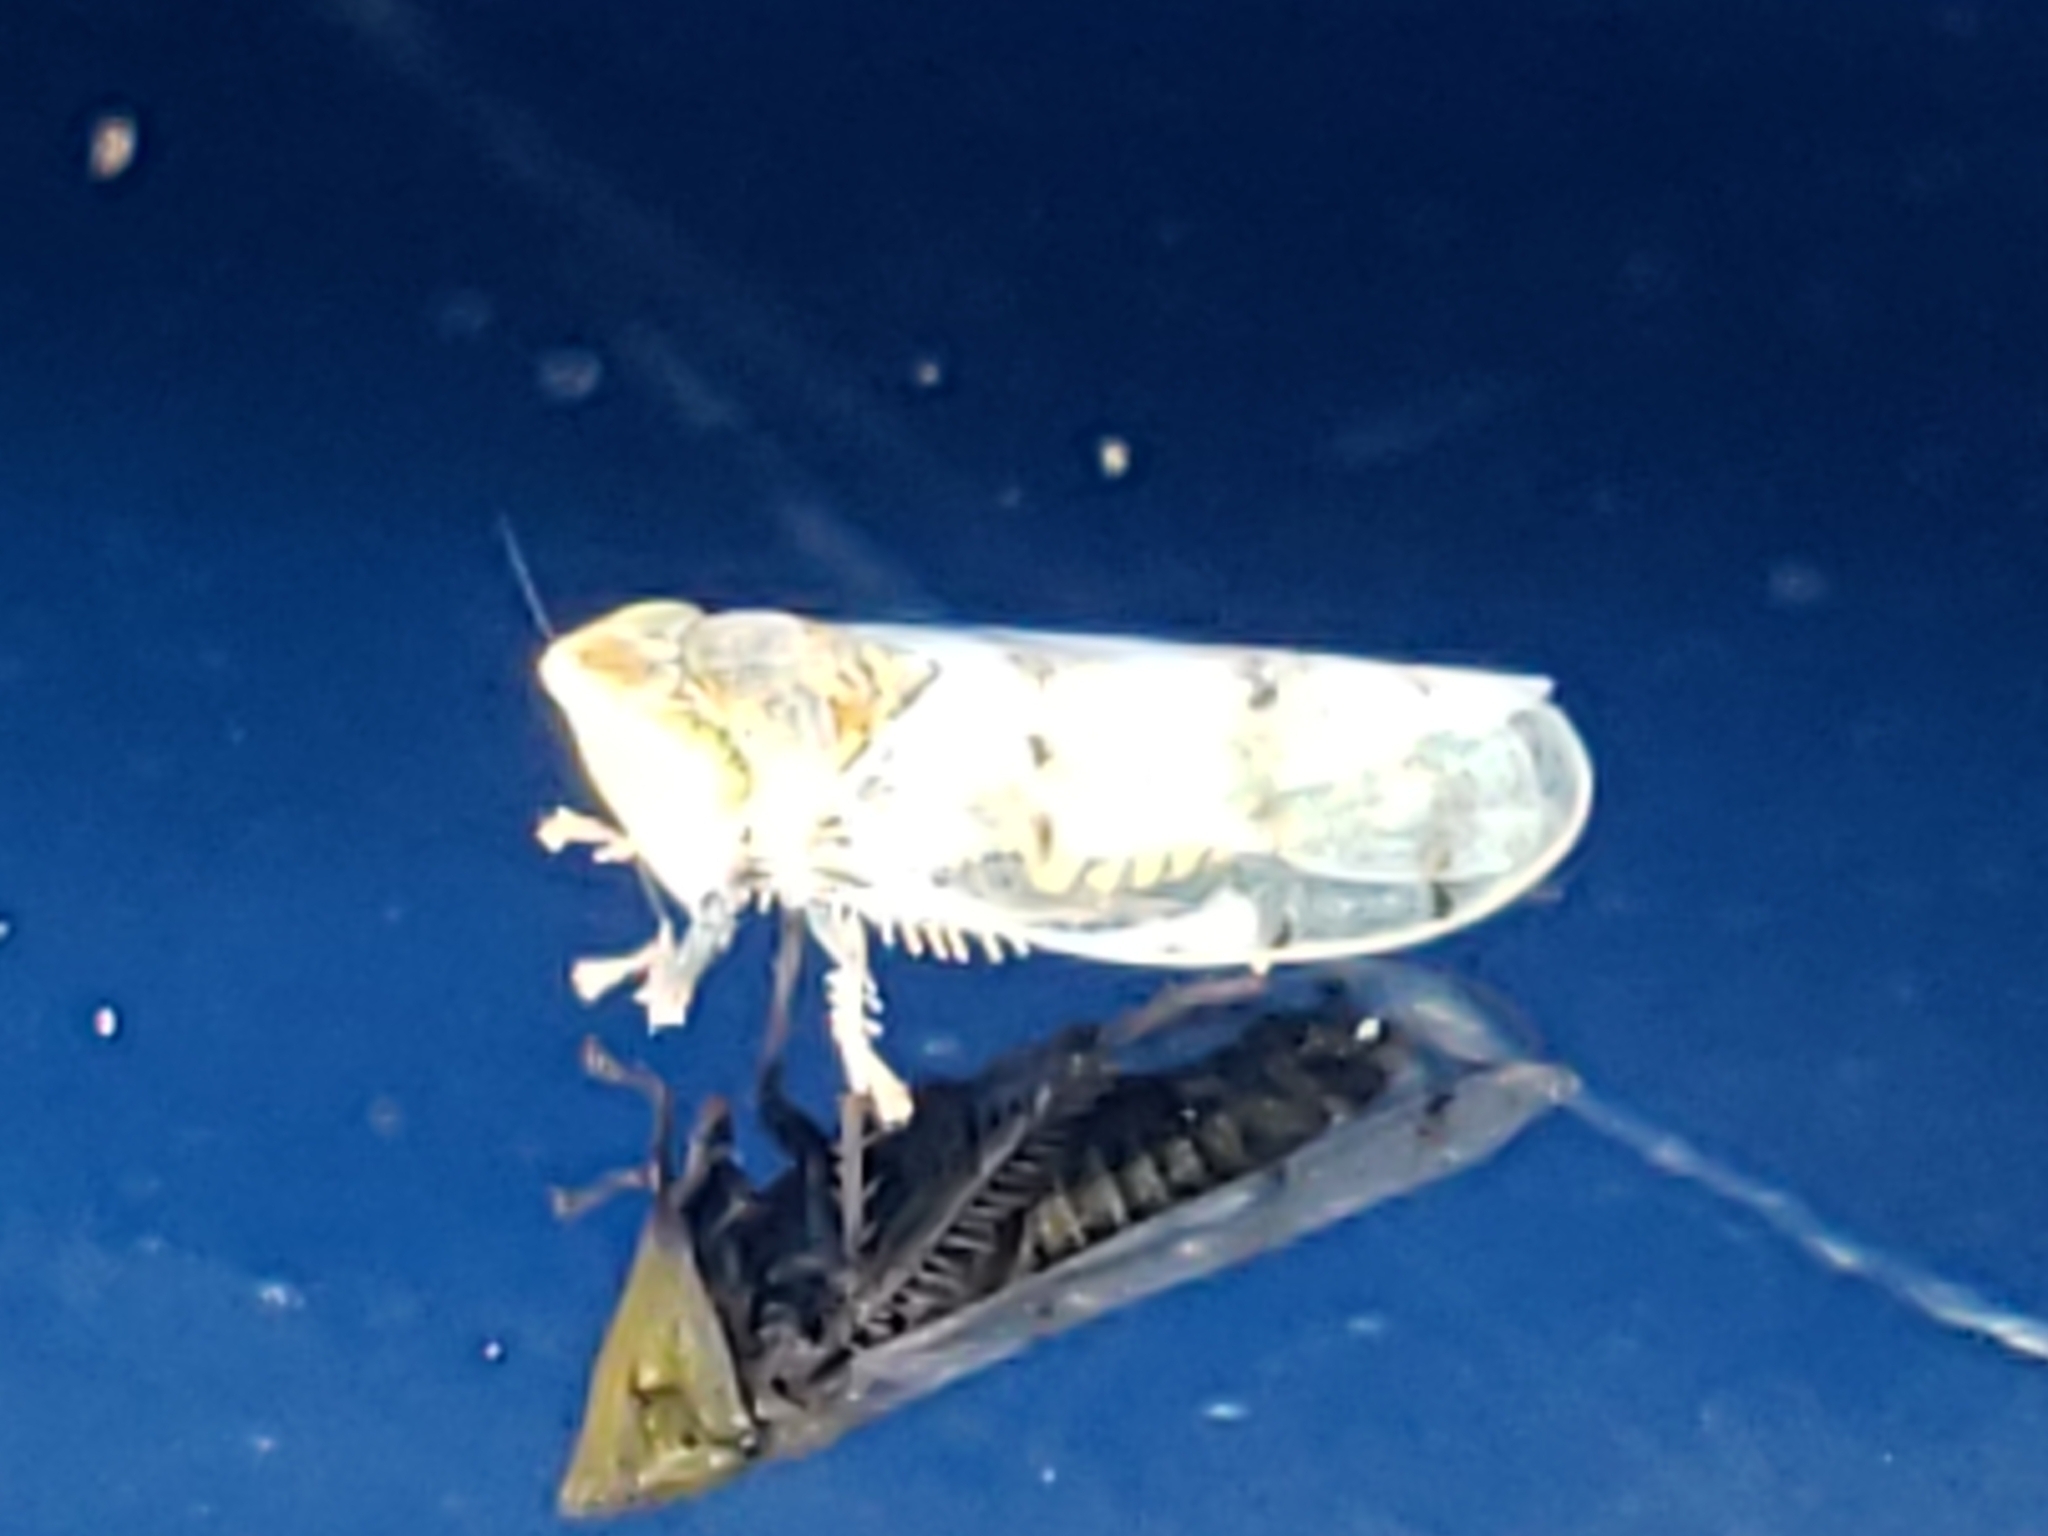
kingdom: Animalia
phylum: Arthropoda
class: Insecta
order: Hemiptera
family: Cicadellidae
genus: Japananus
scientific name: Japananus hyalinus
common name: The japanese maple leafhopper
